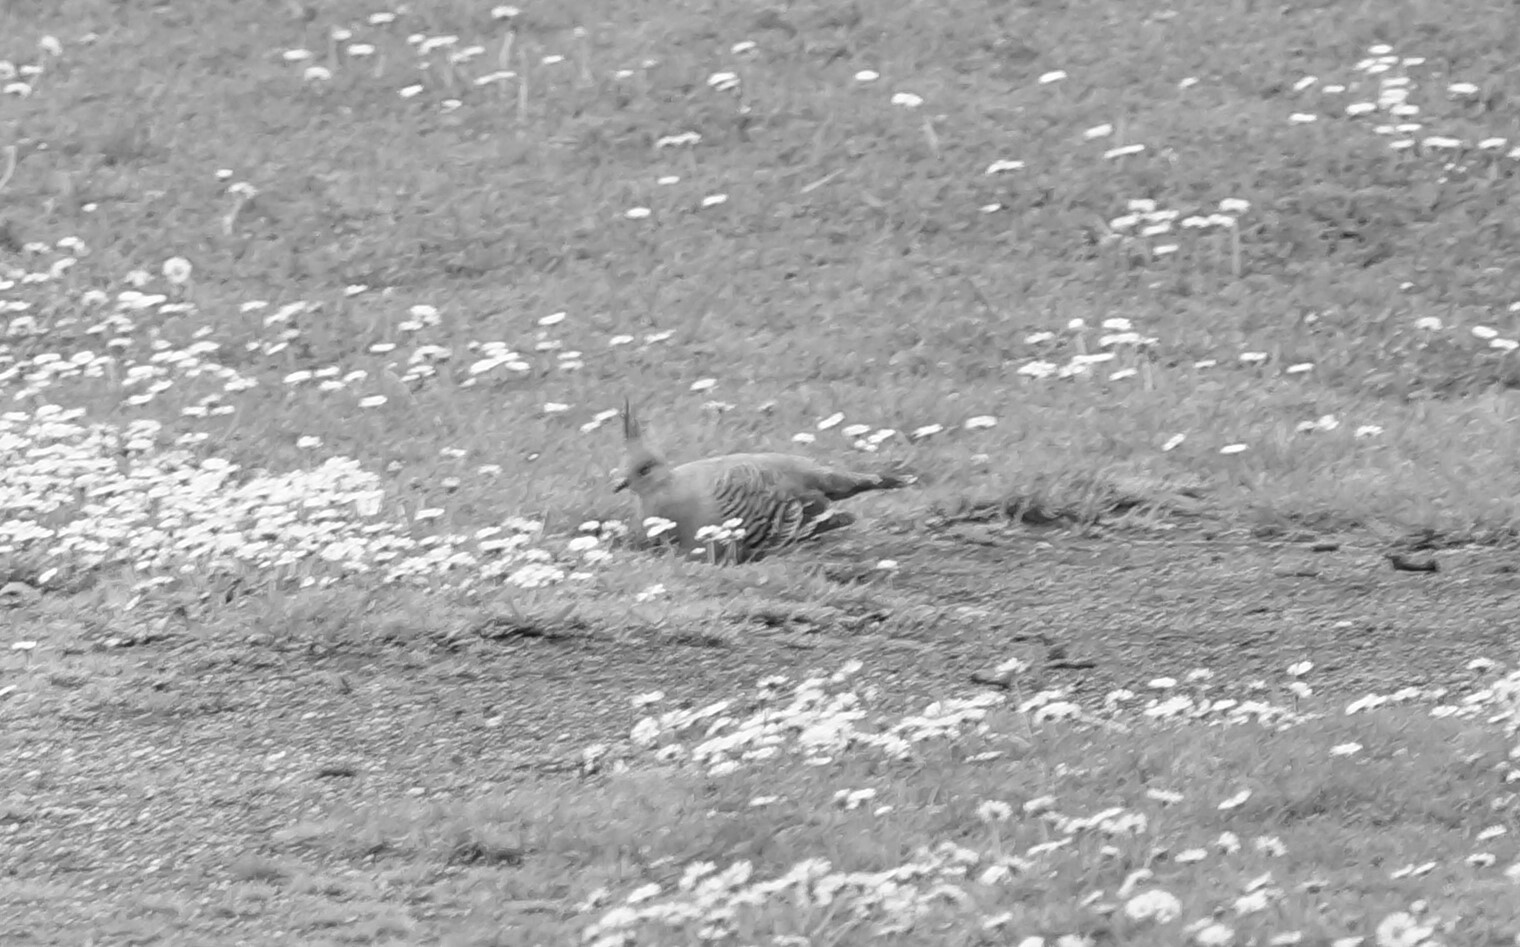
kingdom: Animalia
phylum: Chordata
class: Aves
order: Columbiformes
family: Columbidae
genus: Ocyphaps
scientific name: Ocyphaps lophotes
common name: Crested pigeon
